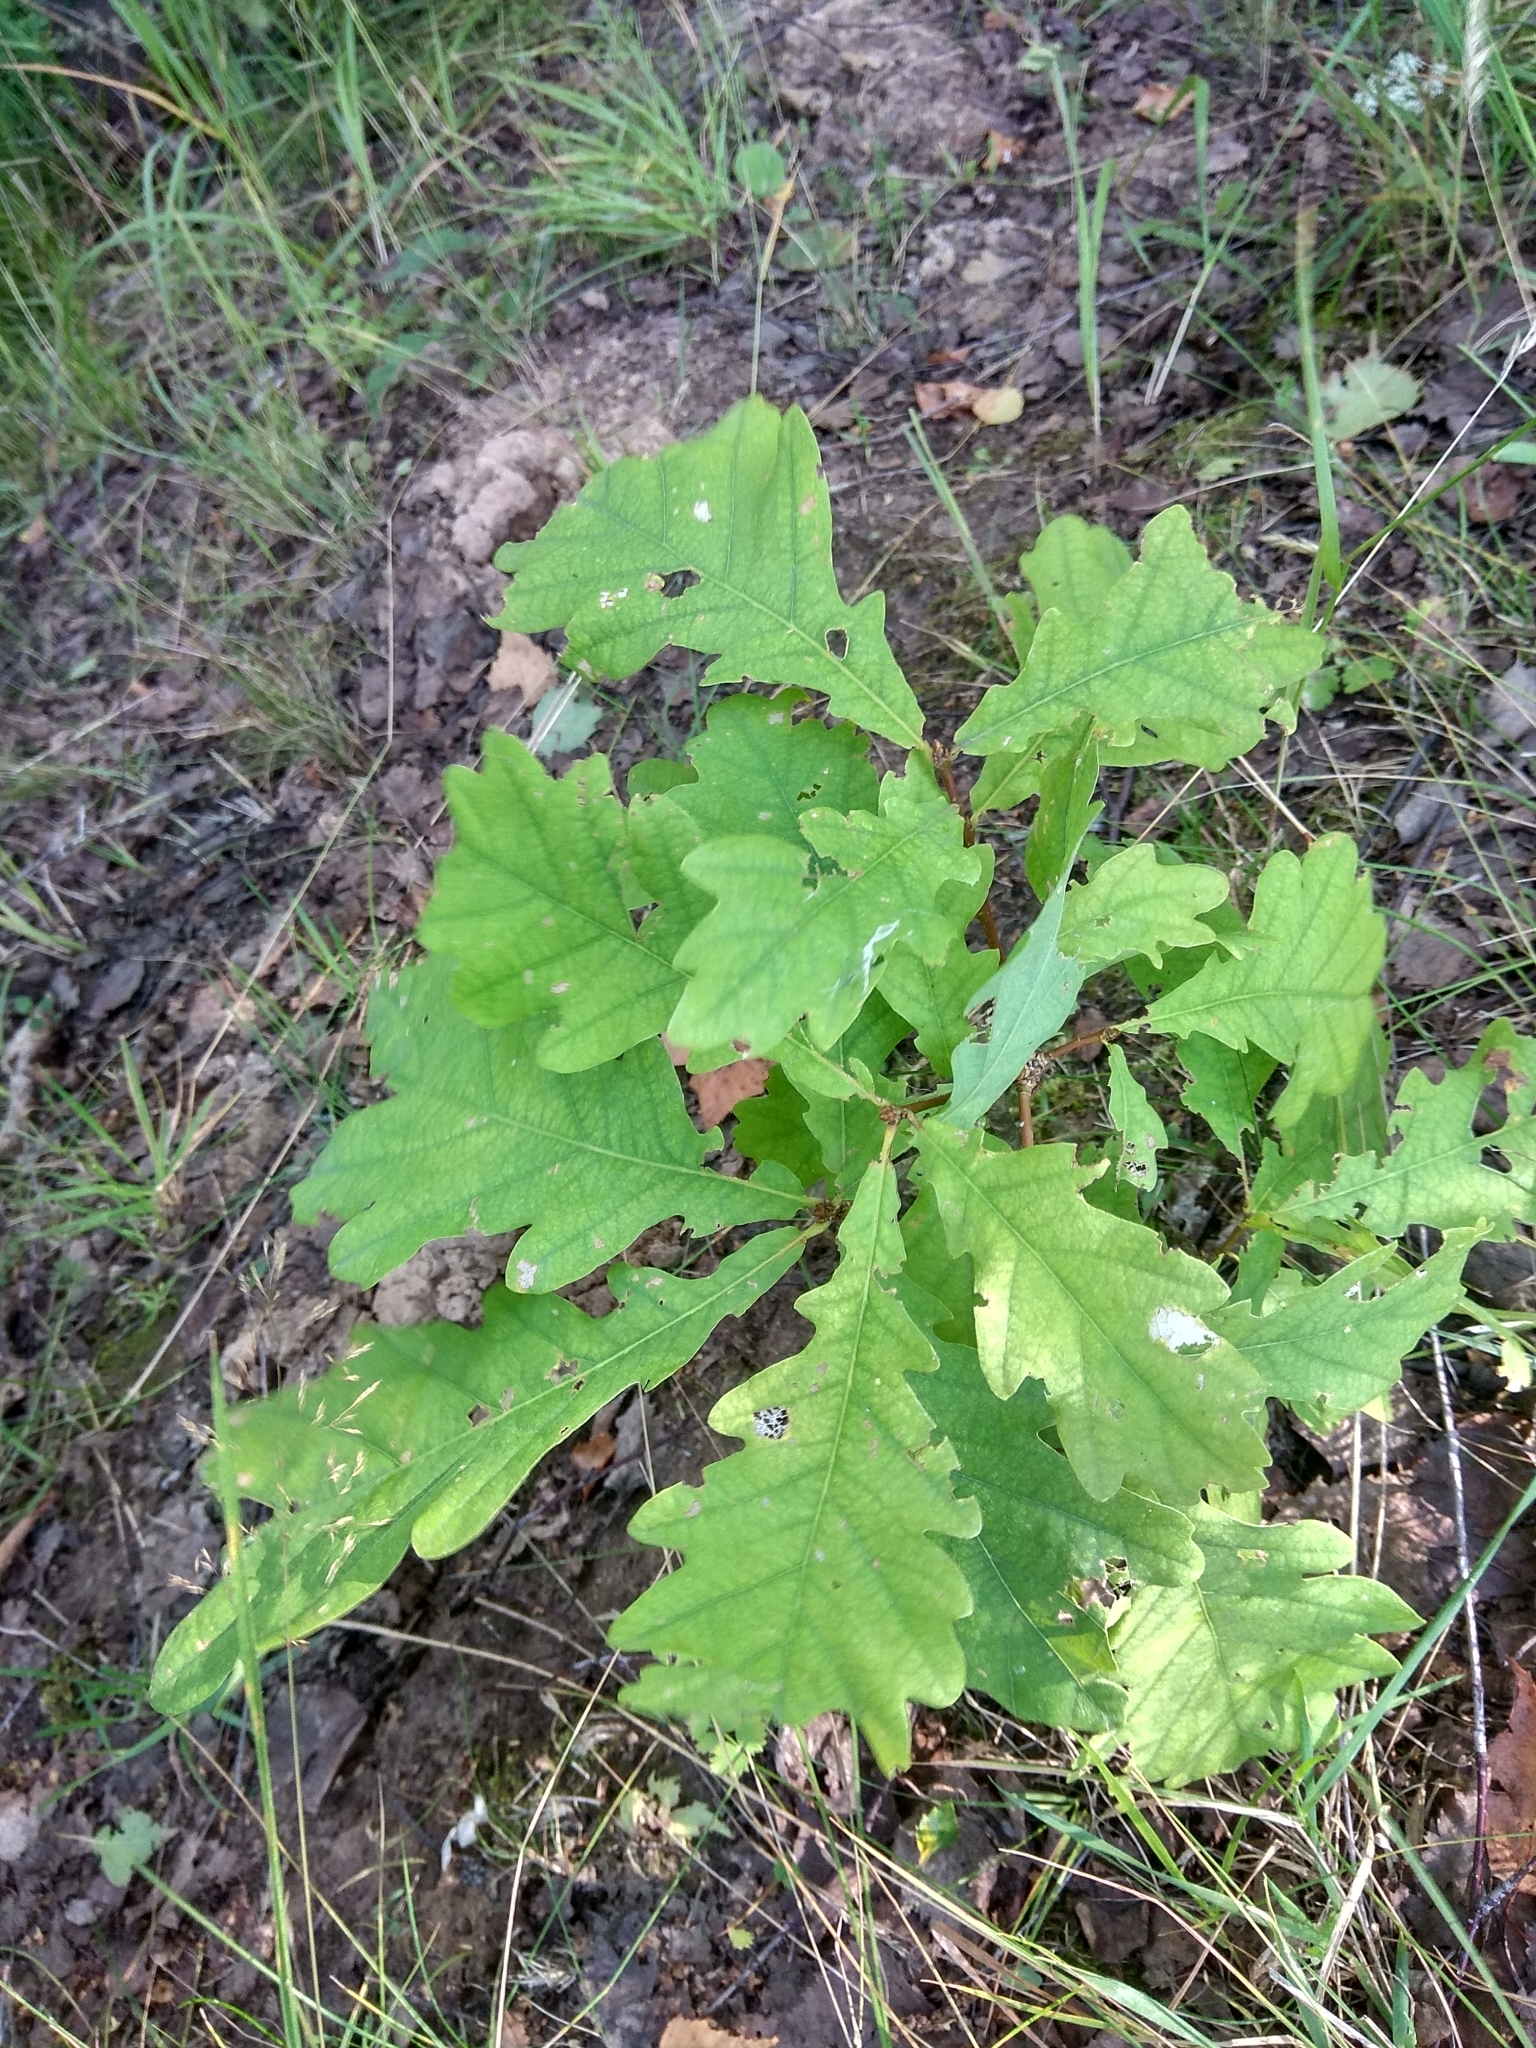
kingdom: Plantae
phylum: Tracheophyta
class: Magnoliopsida
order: Fagales
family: Fagaceae
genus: Quercus
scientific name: Quercus robur
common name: Pedunculate oak
